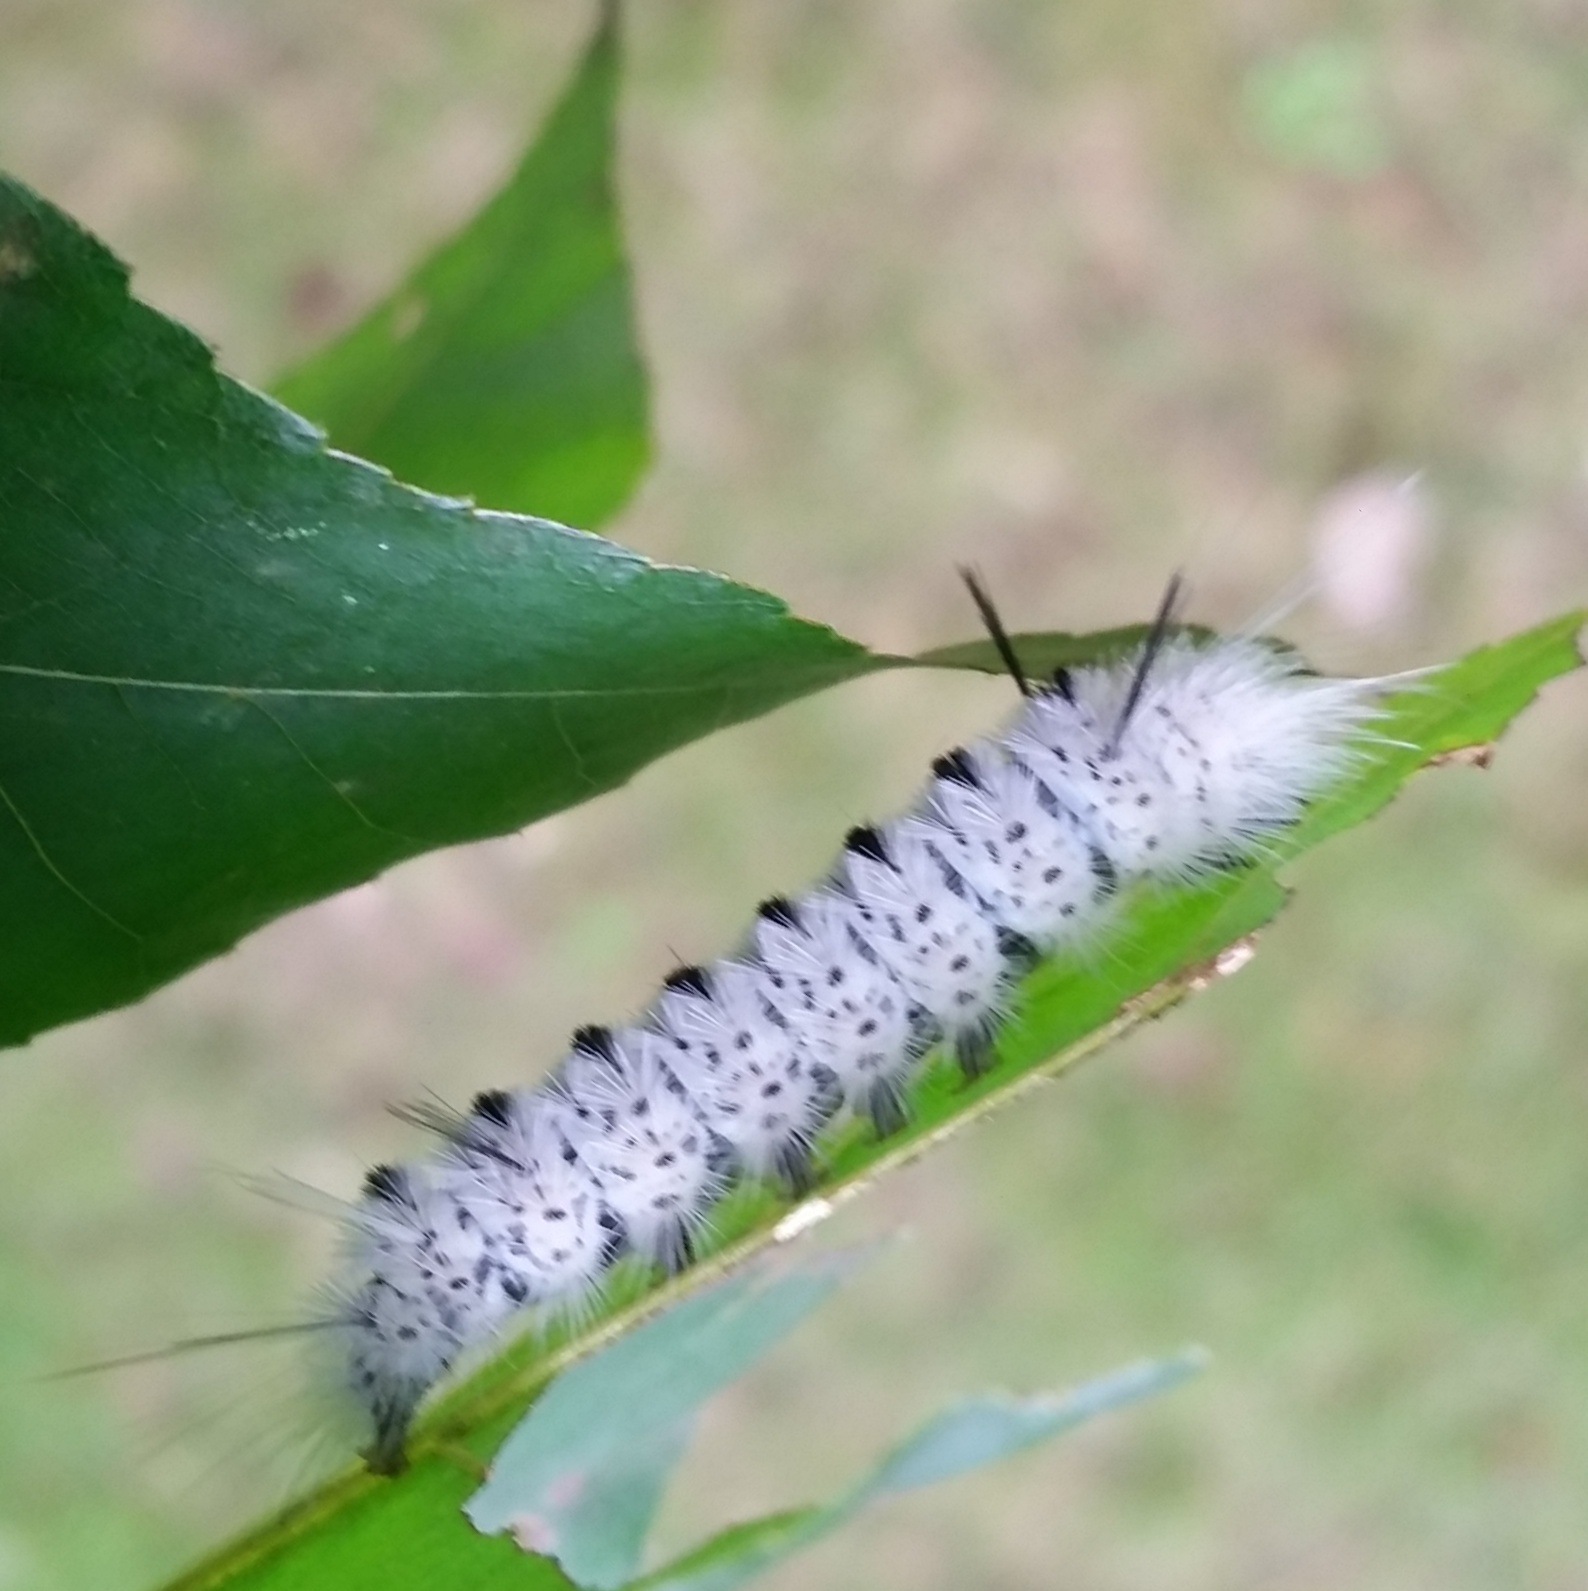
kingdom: Animalia
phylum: Arthropoda
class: Insecta
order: Lepidoptera
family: Erebidae
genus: Lophocampa
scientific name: Lophocampa caryae
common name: Hickory tussock moth
